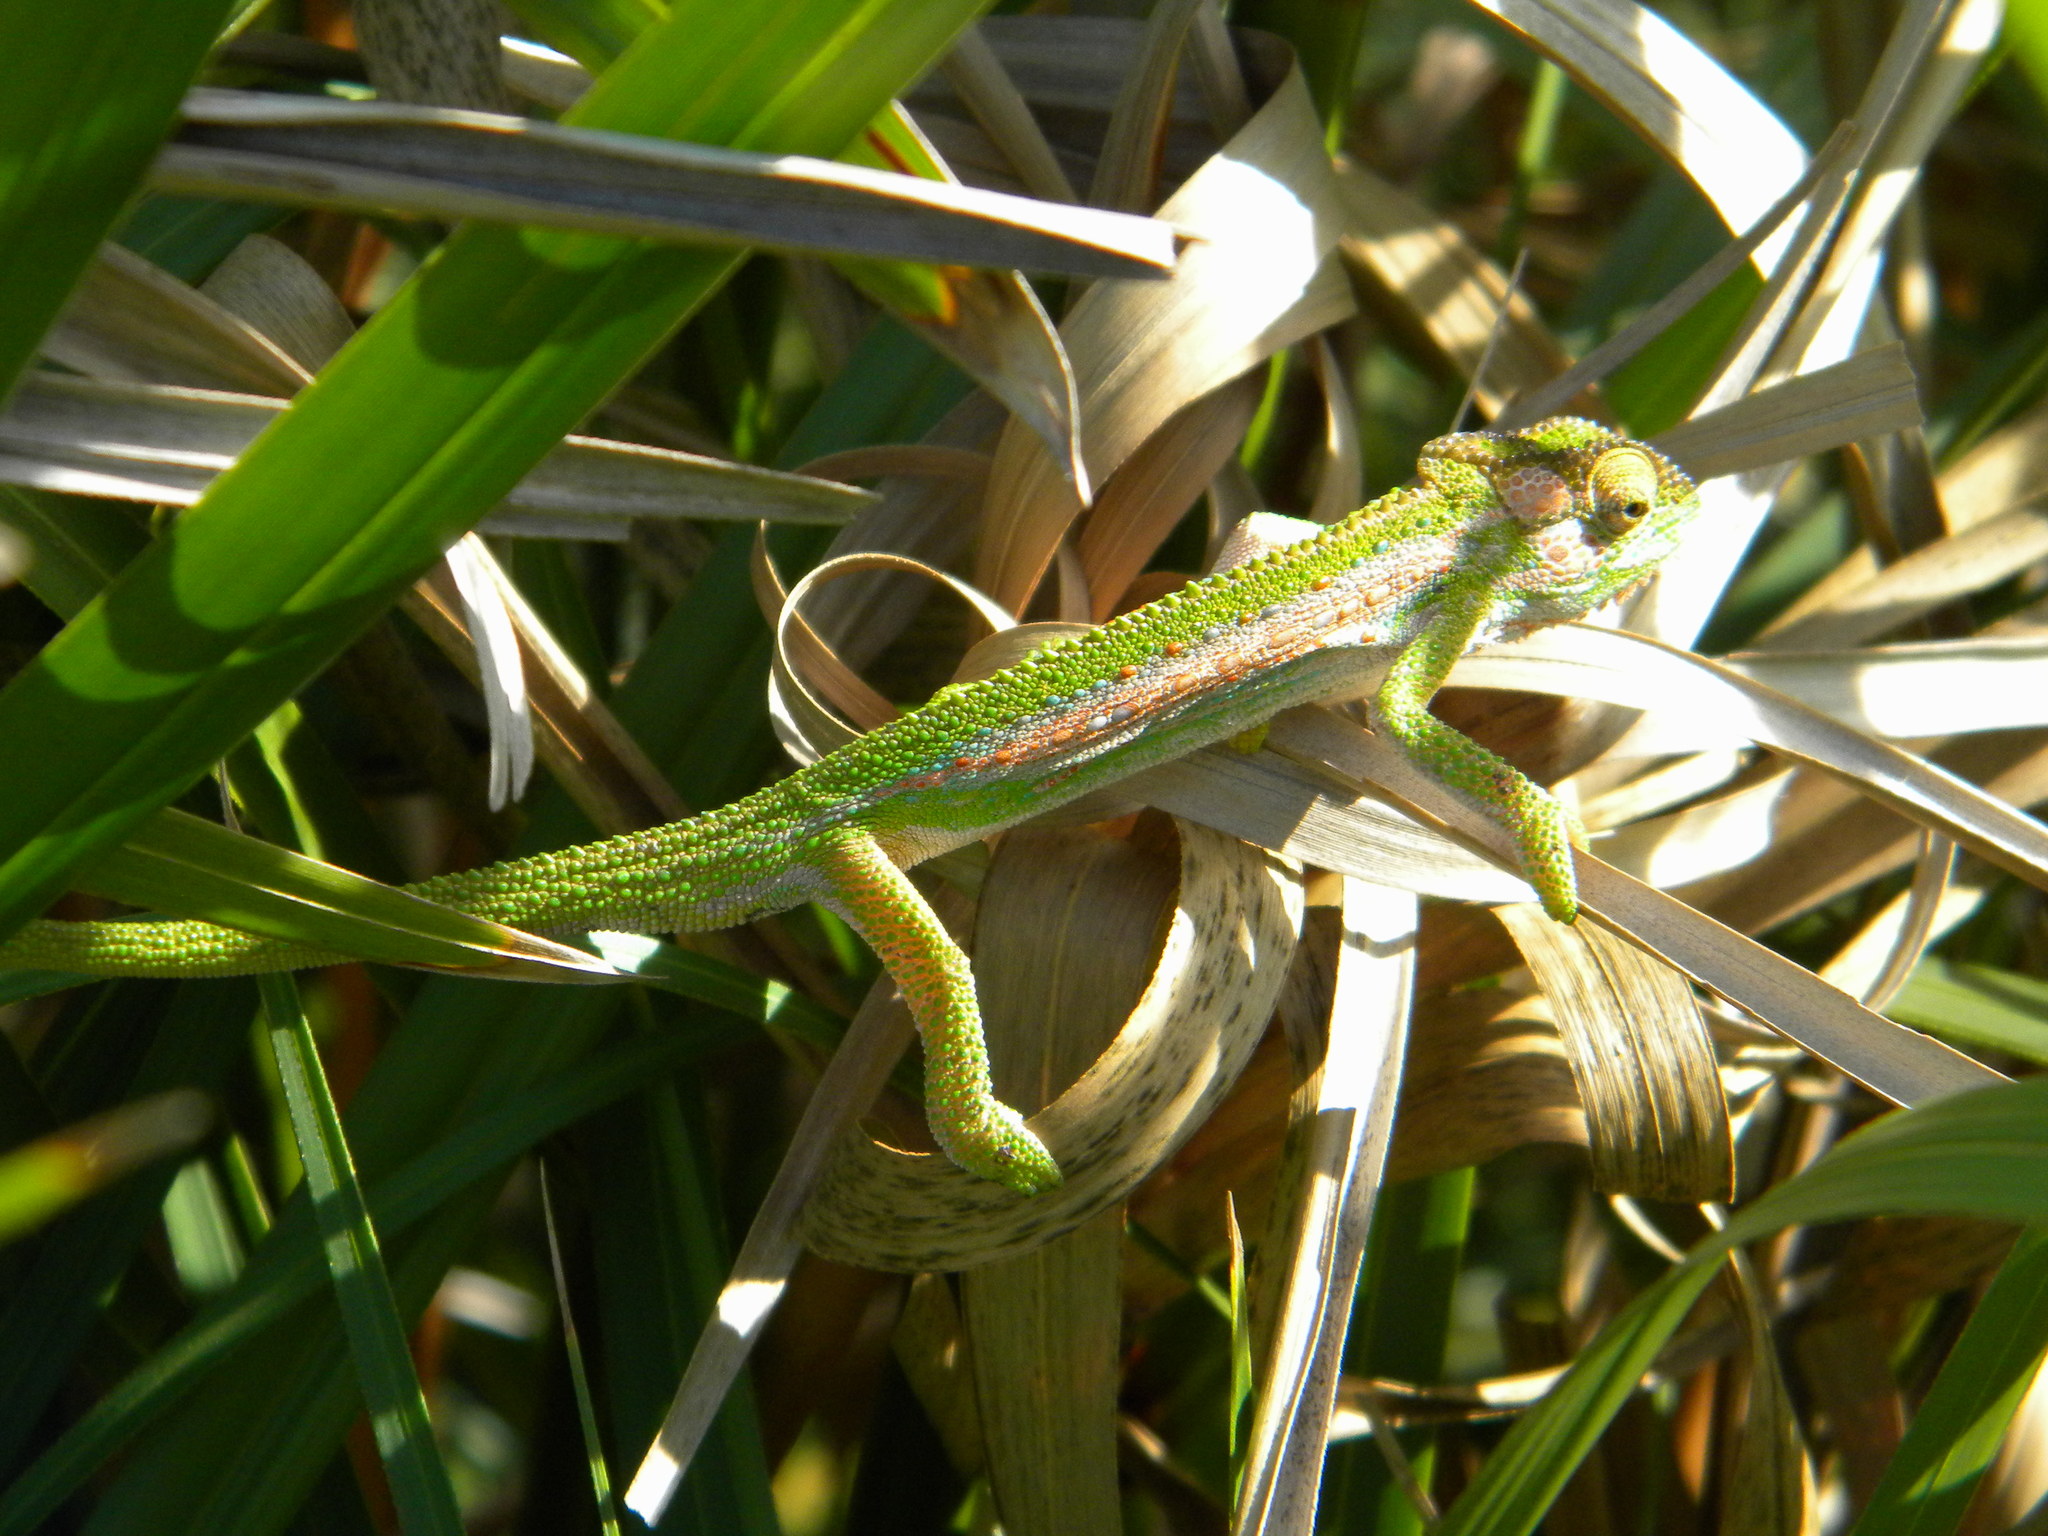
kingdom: Animalia
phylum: Chordata
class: Squamata
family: Chamaeleonidae
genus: Bradypodion
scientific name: Bradypodion pumilum
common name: Cape dwarf chameleon
